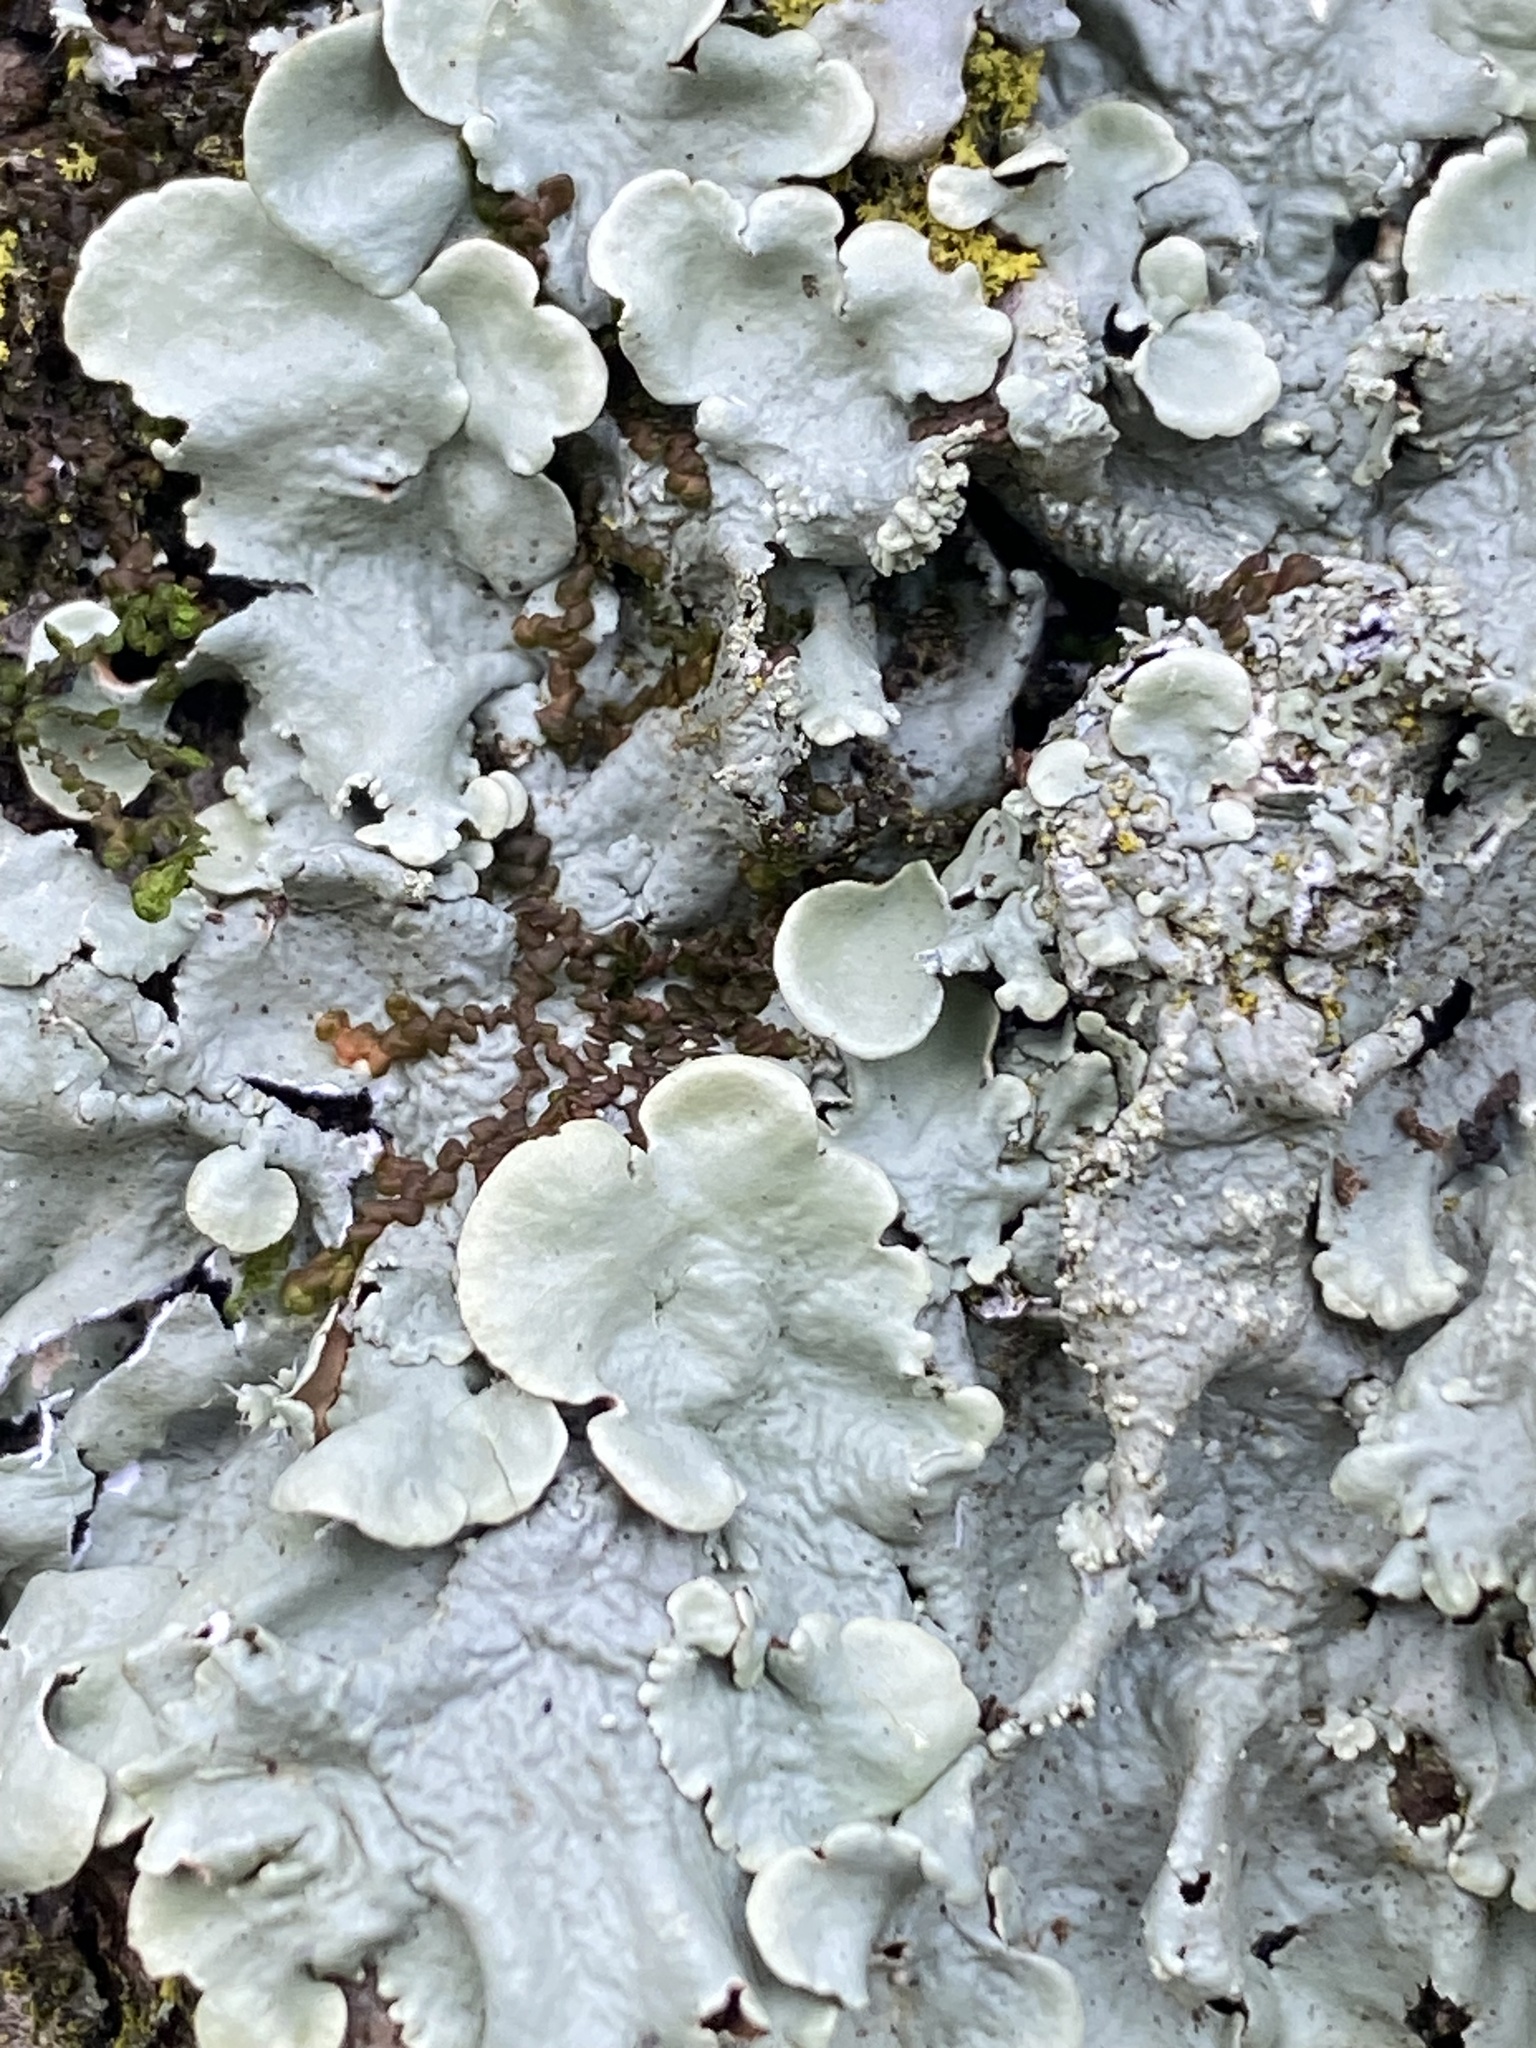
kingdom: Fungi
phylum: Ascomycota
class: Lecanoromycetes
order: Lecanorales
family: Parmeliaceae
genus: Flavoparmelia
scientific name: Flavoparmelia caperata
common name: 40-mile per hour lichen
